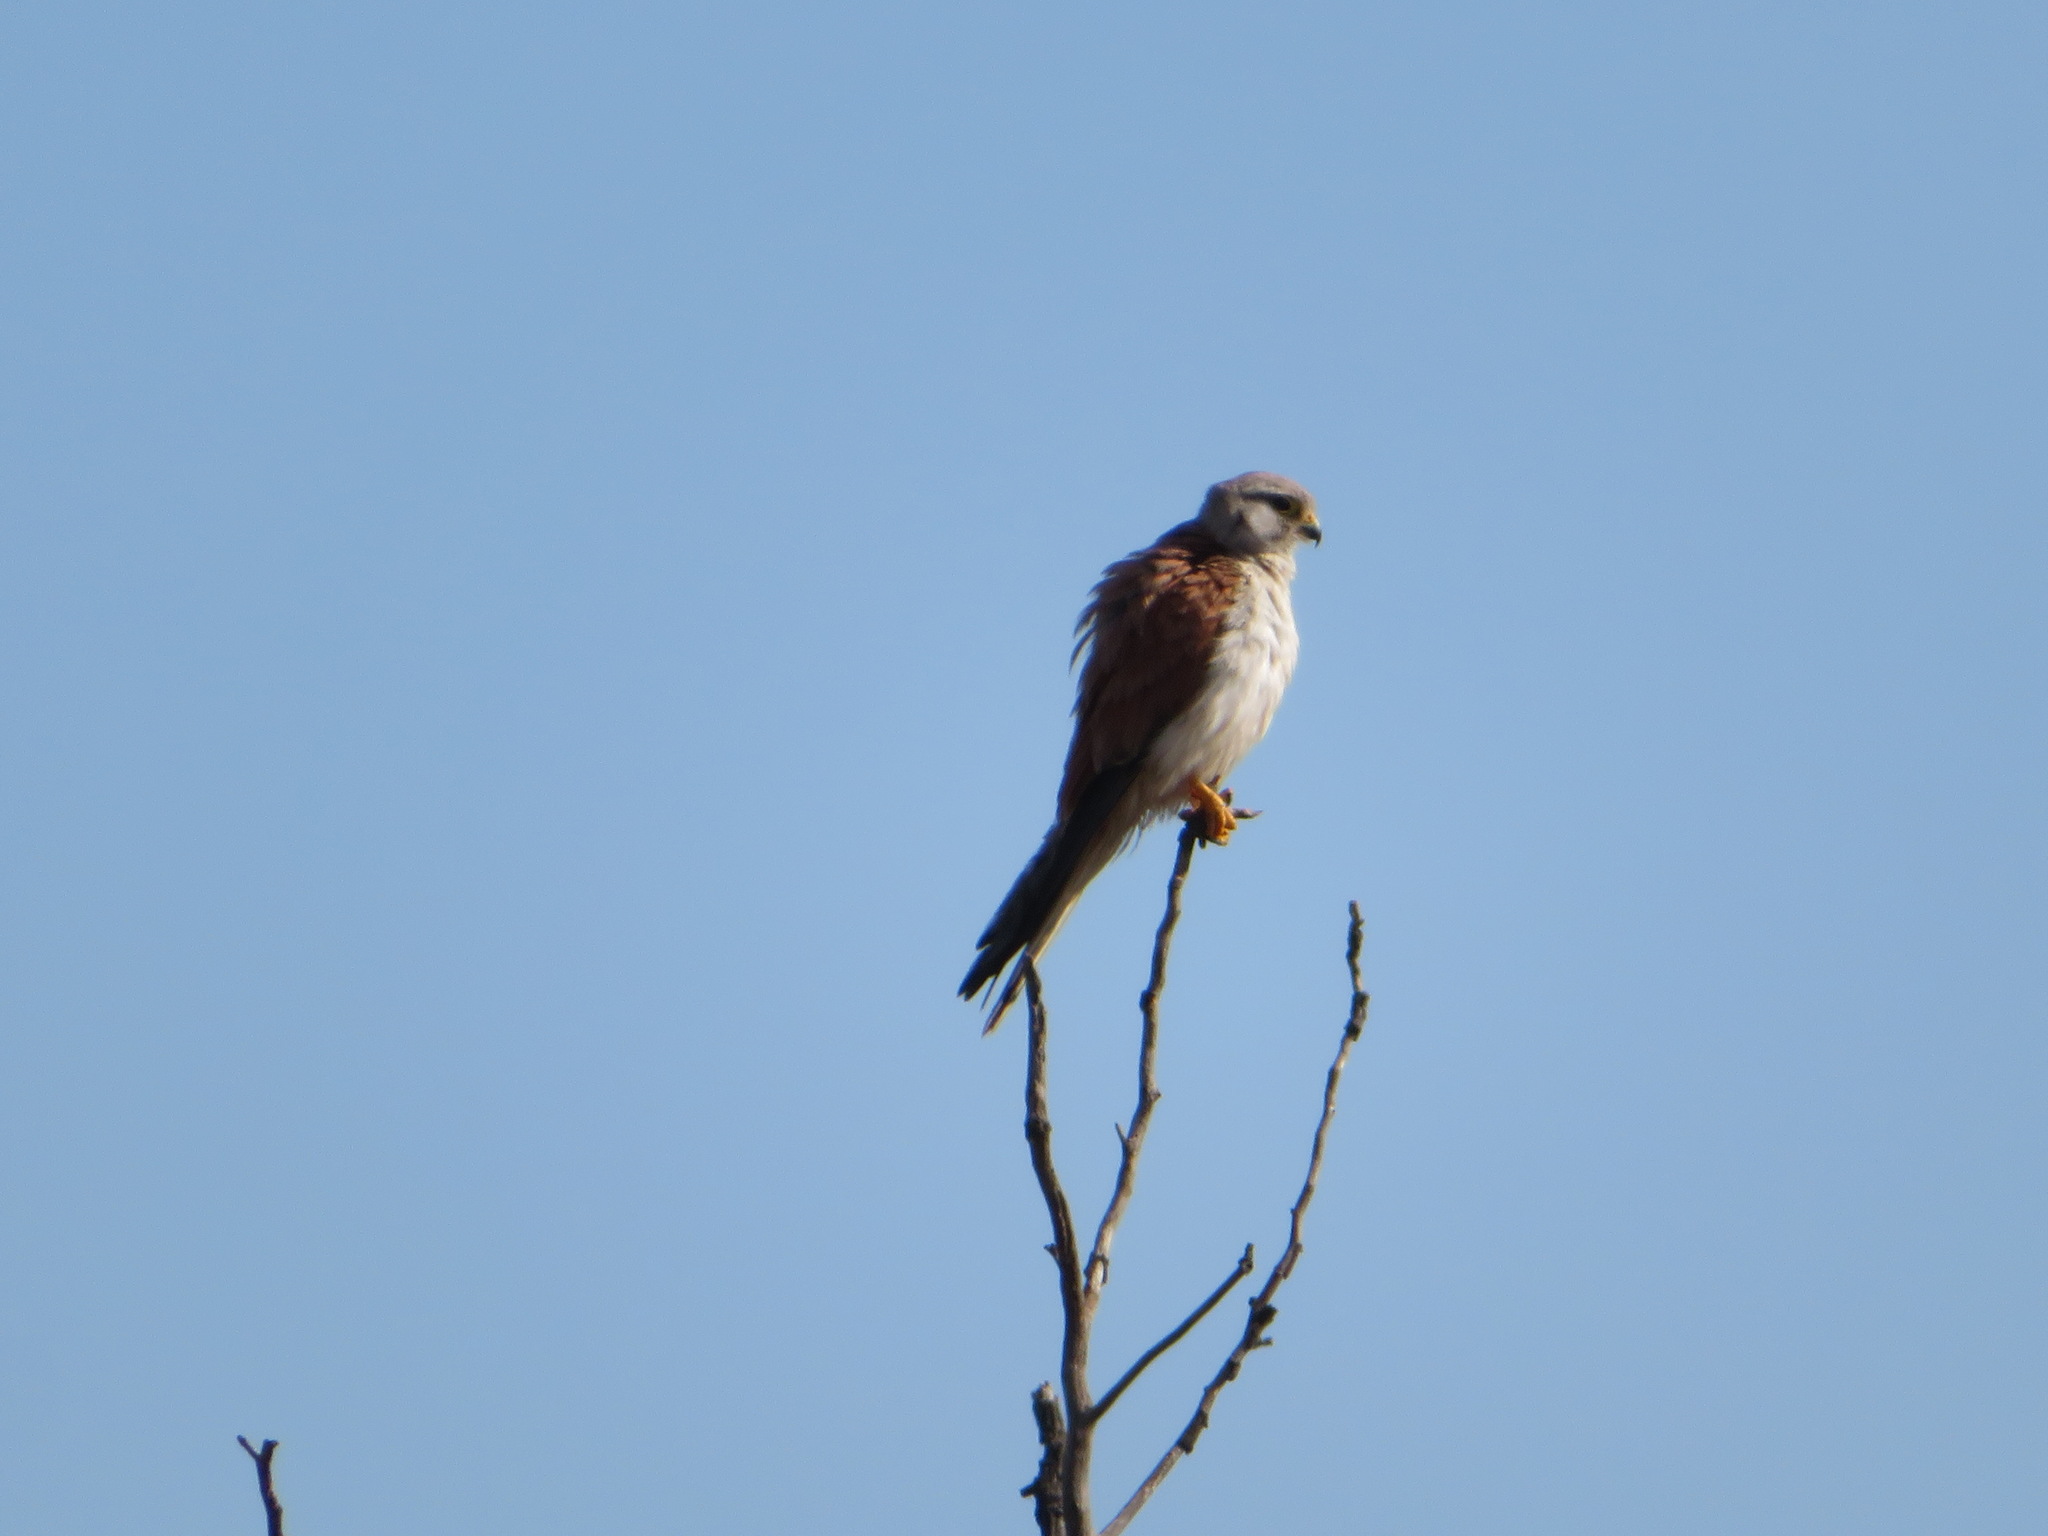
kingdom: Animalia
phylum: Chordata
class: Aves
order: Falconiformes
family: Falconidae
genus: Falco
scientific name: Falco cenchroides
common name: Nankeen kestrel
